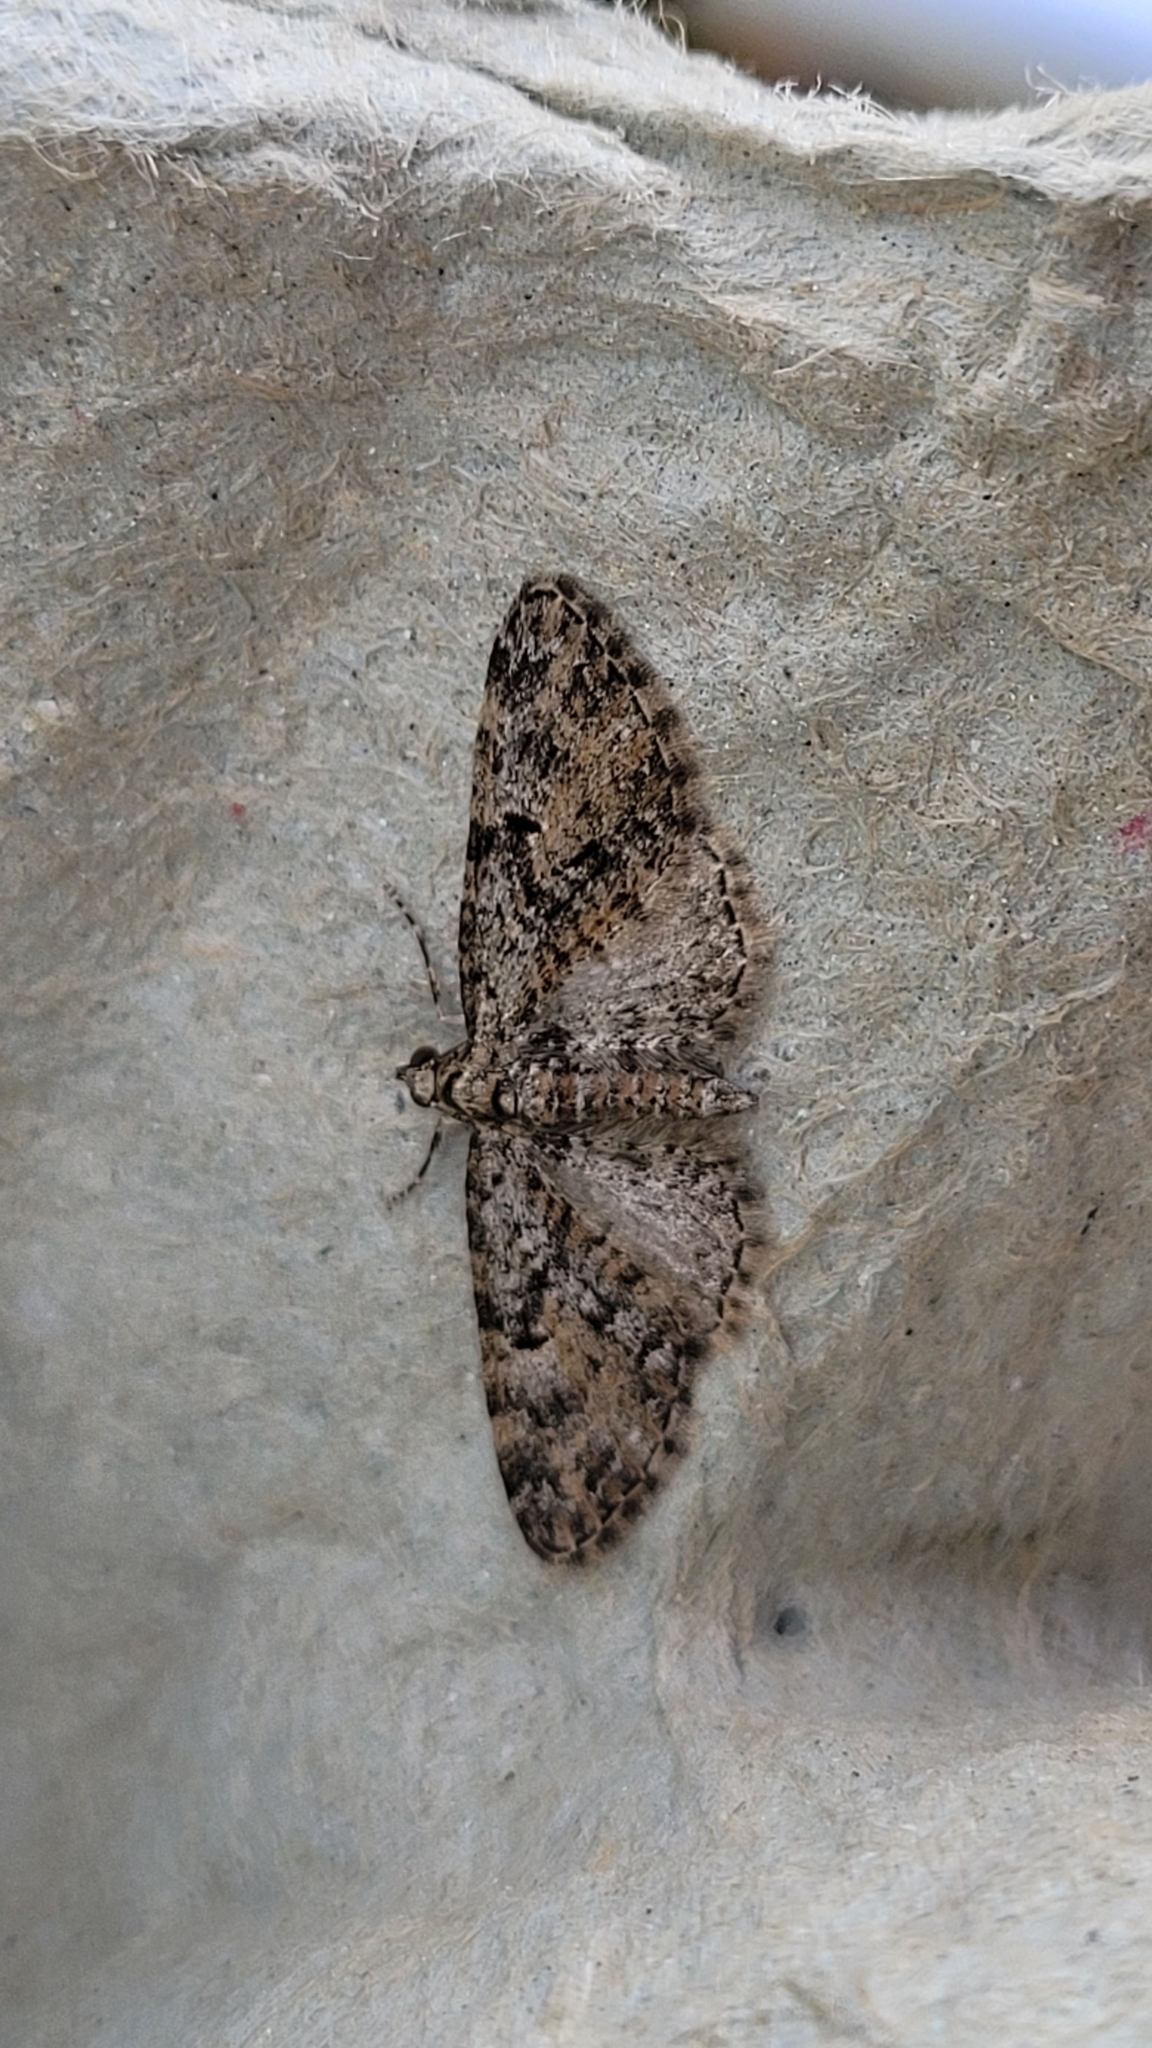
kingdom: Animalia
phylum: Arthropoda
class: Insecta
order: Lepidoptera
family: Geometridae
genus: Eupithecia
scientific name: Eupithecia abbreviata
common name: Brindled pug
